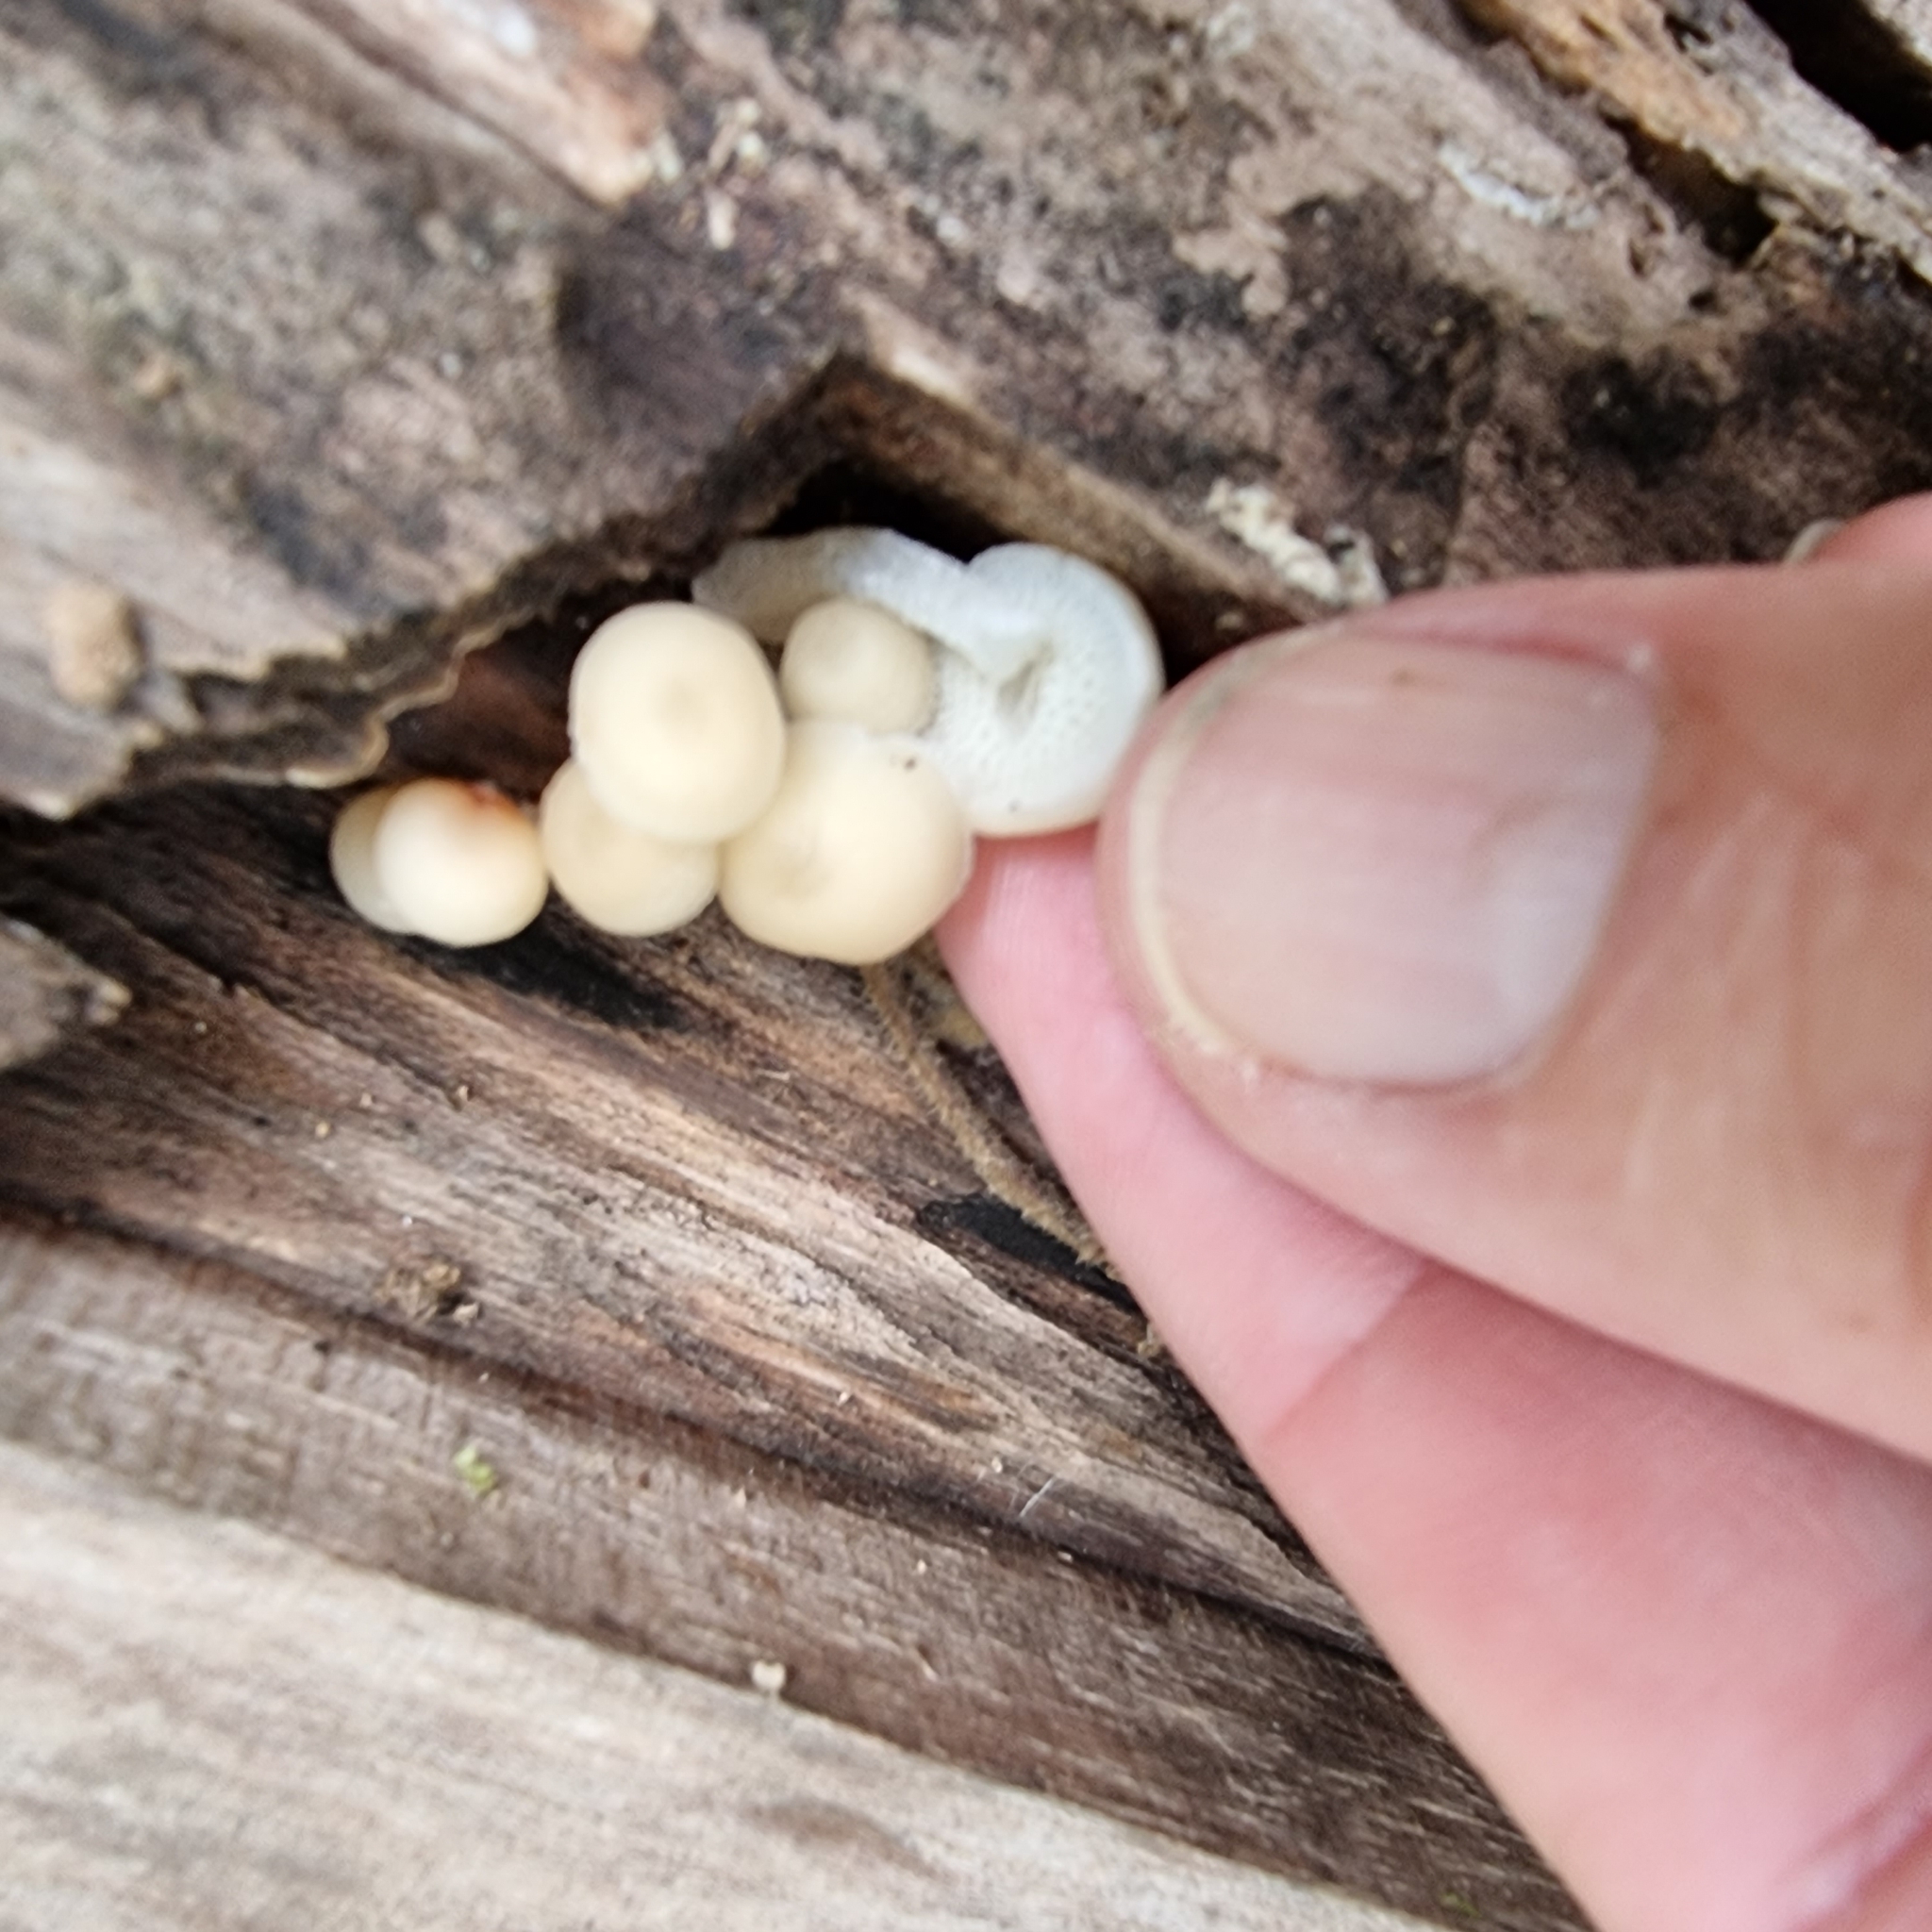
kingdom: Fungi
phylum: Basidiomycota
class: Agaricomycetes
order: Agaricales
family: Mycenaceae
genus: Filoboletus
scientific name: Filoboletus manipularis
